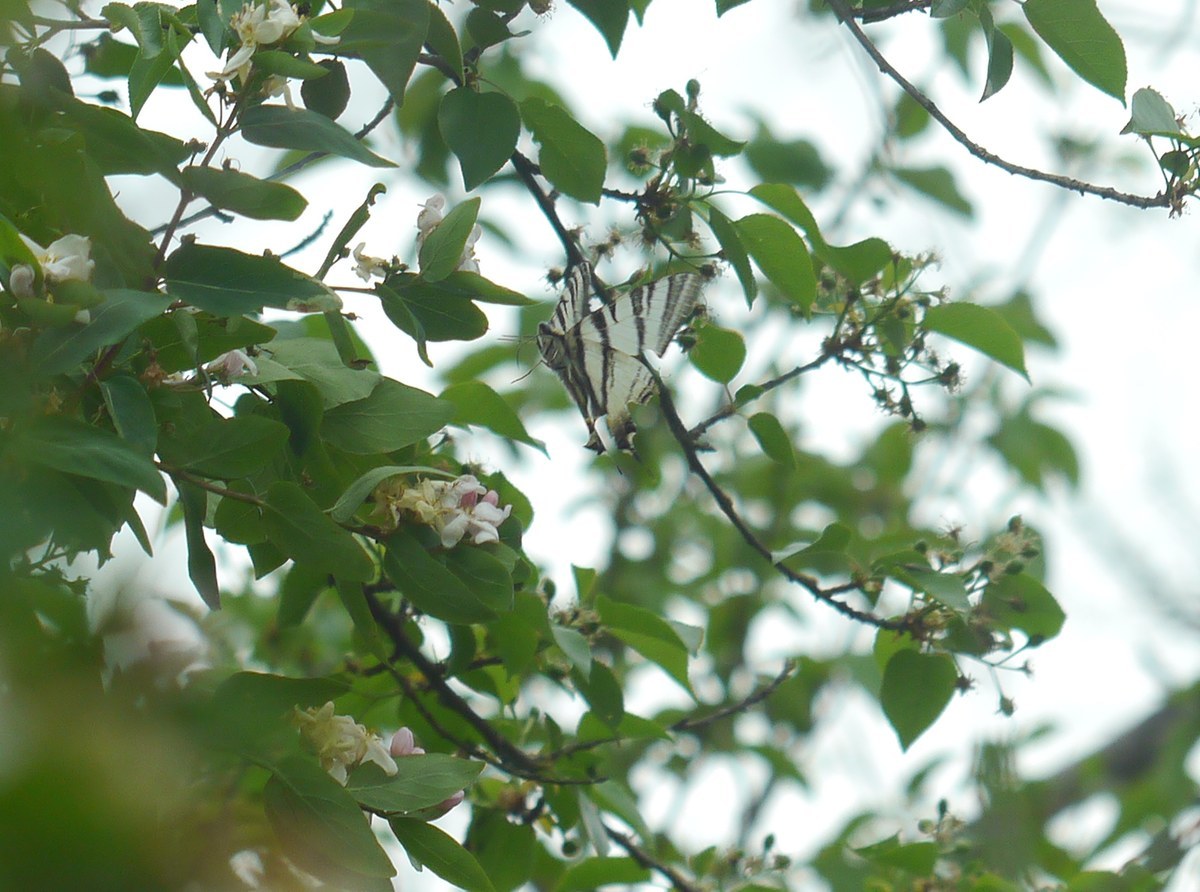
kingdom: Animalia
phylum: Arthropoda
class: Insecta
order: Lepidoptera
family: Papilionidae
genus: Iphiclides
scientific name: Iphiclides podalirius
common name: Scarce swallowtail
